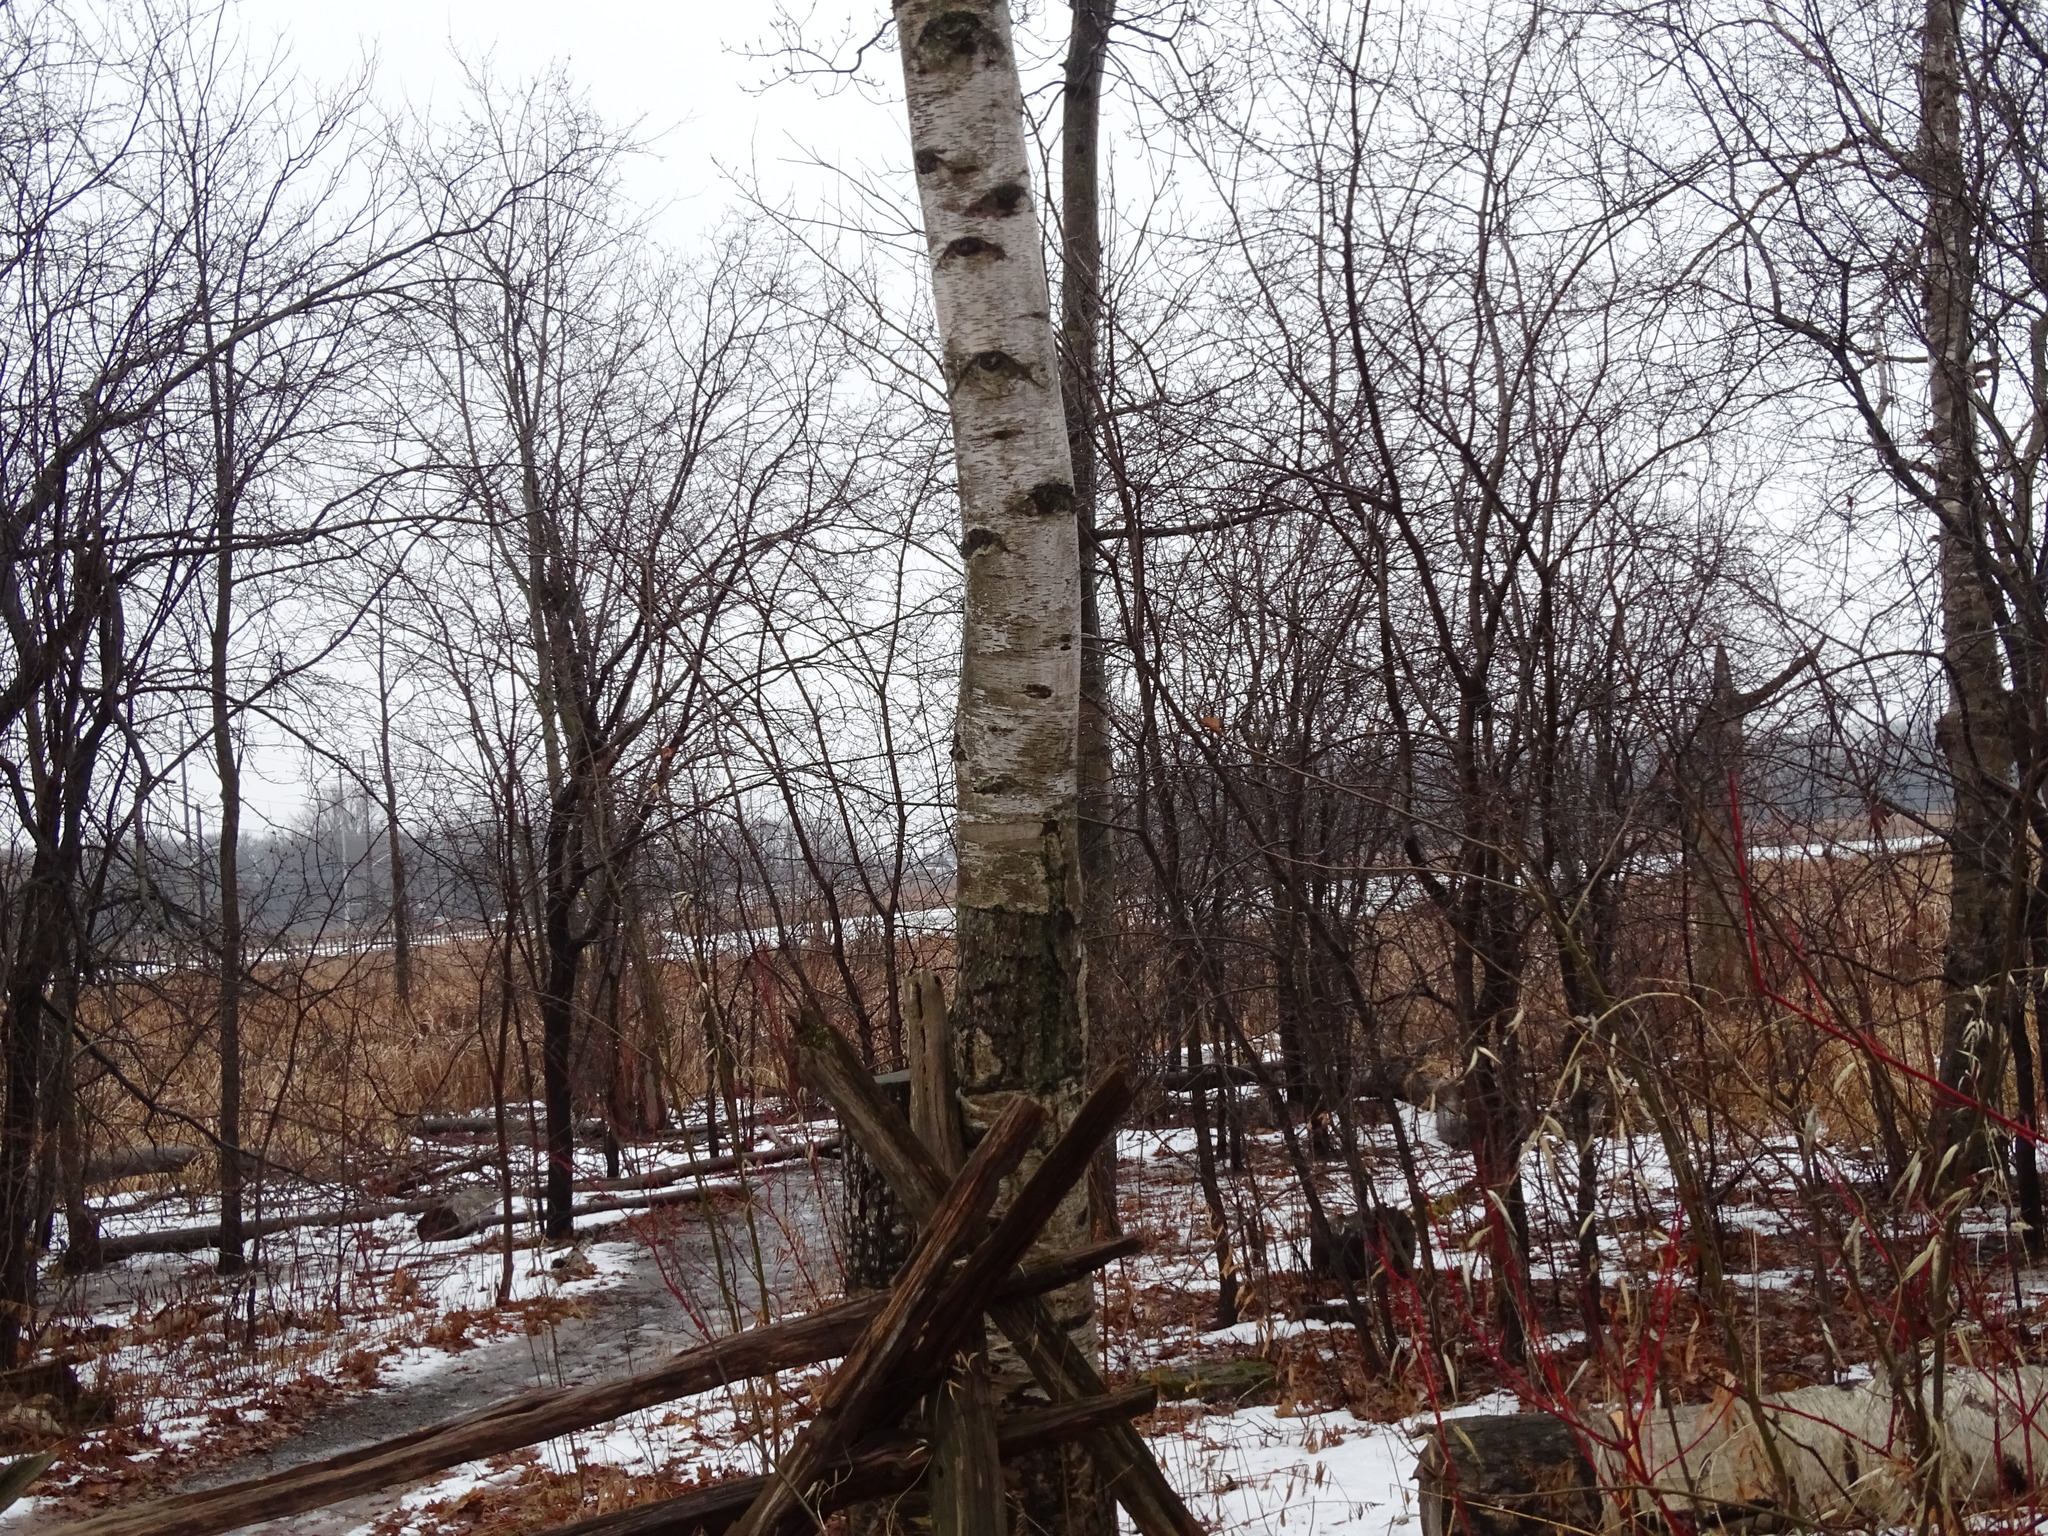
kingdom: Plantae
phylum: Tracheophyta
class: Magnoliopsida
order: Fagales
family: Betulaceae
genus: Betula
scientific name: Betula papyrifera
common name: Paper birch
